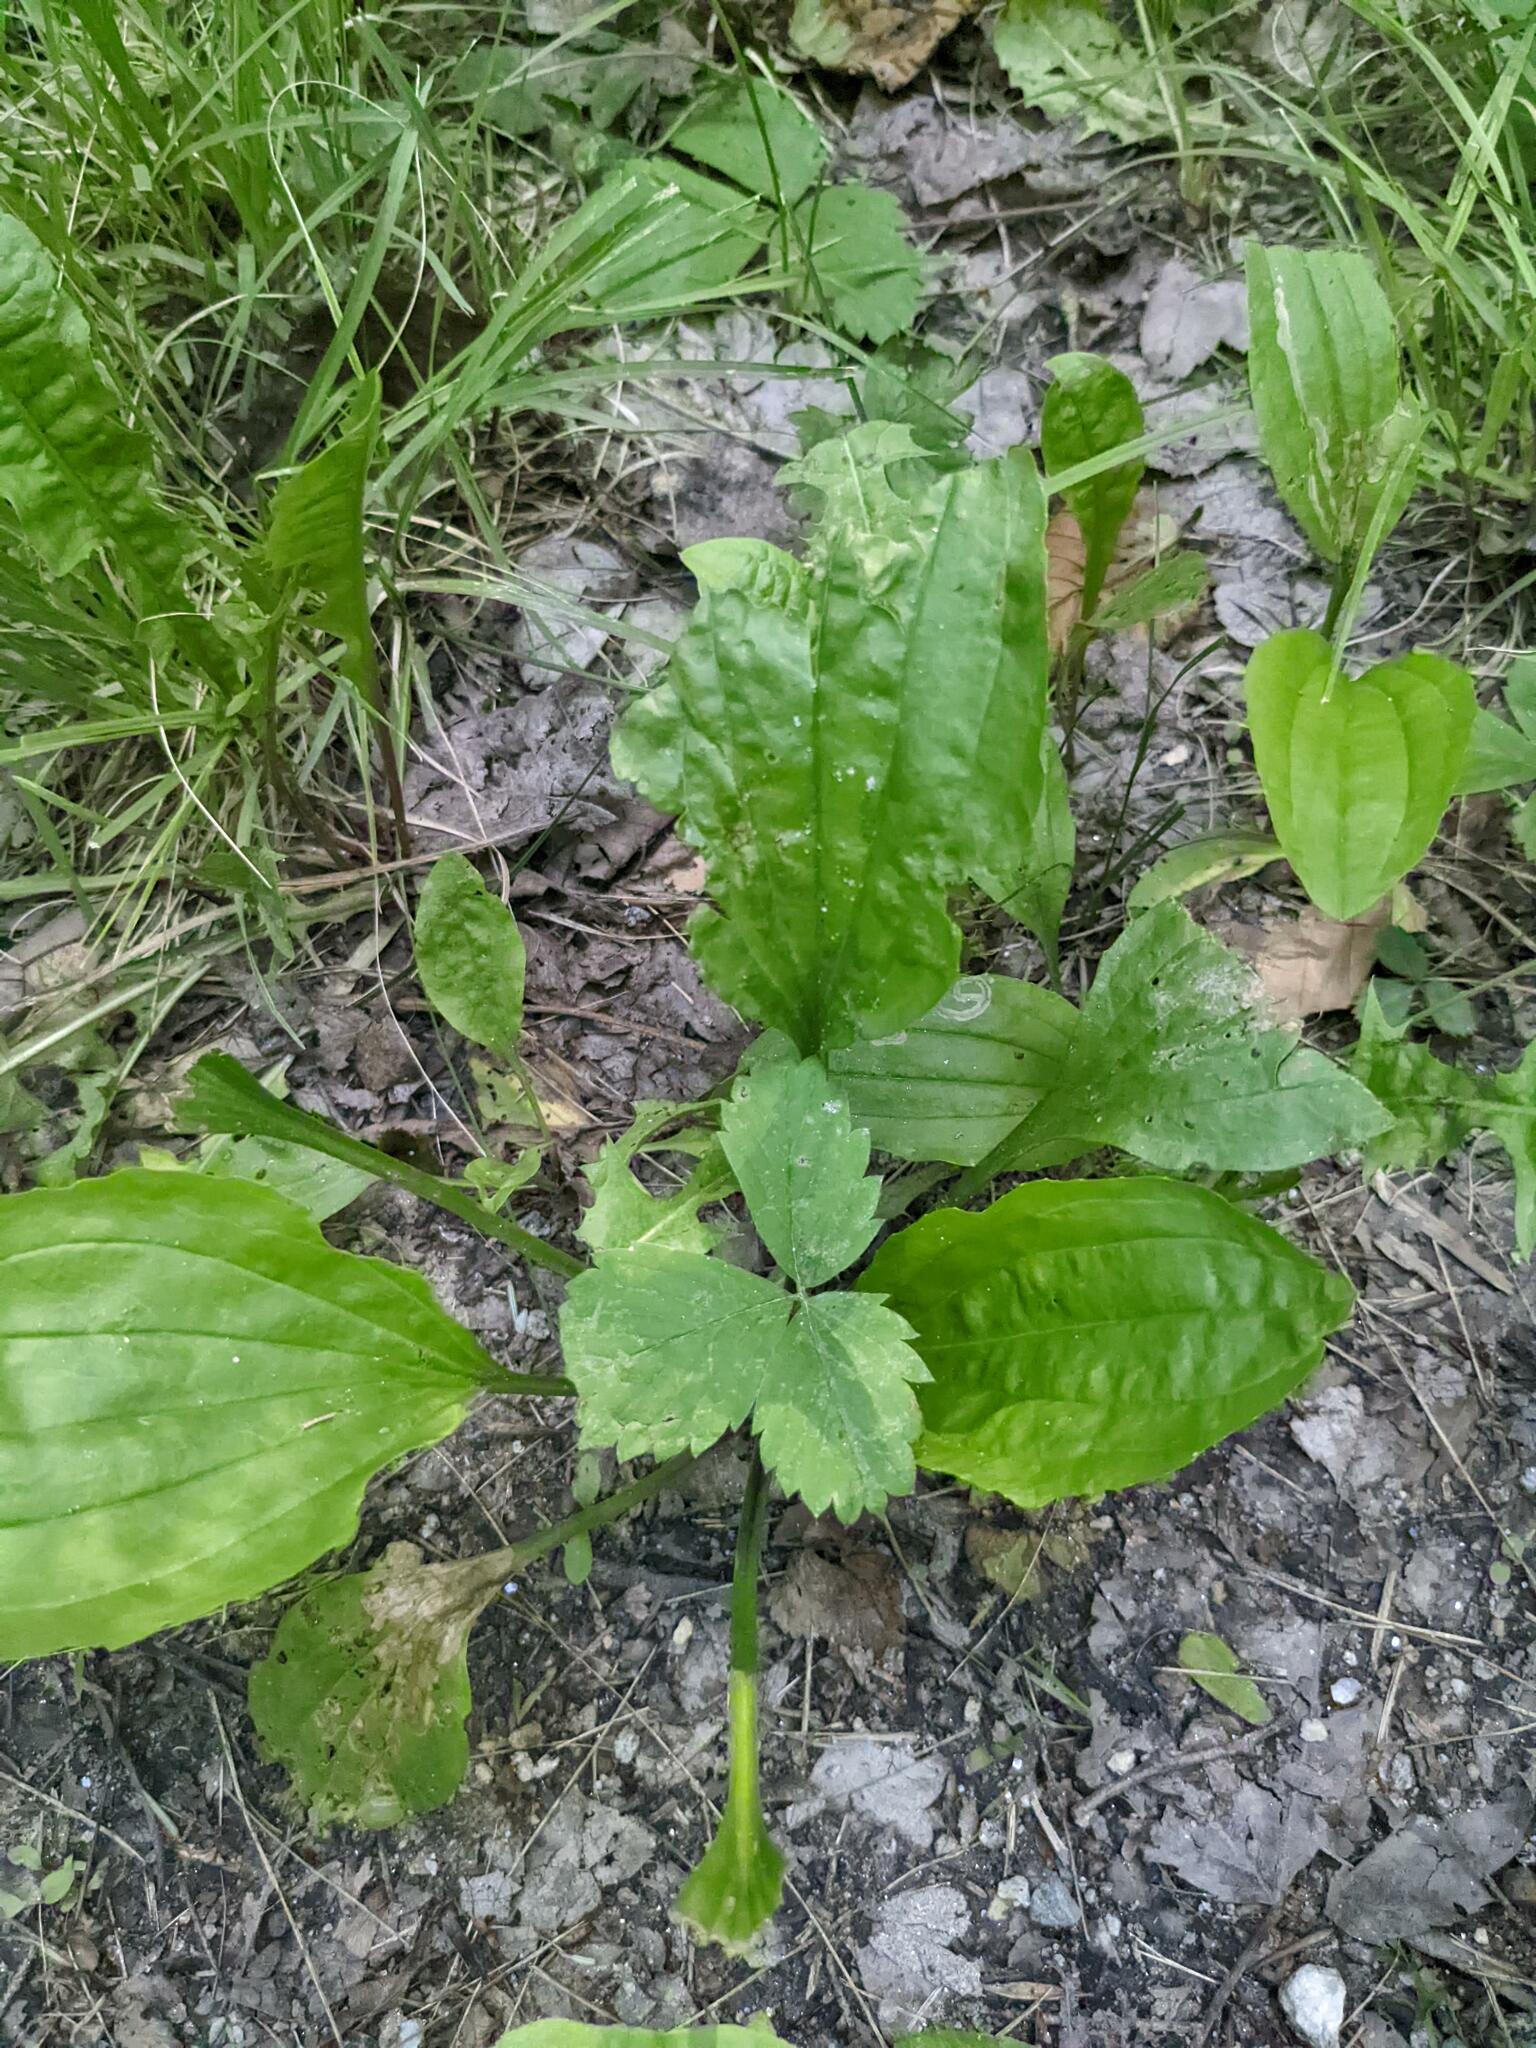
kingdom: Plantae
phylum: Tracheophyta
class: Magnoliopsida
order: Lamiales
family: Plantaginaceae
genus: Plantago
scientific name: Plantago rugelii
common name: American plantain
